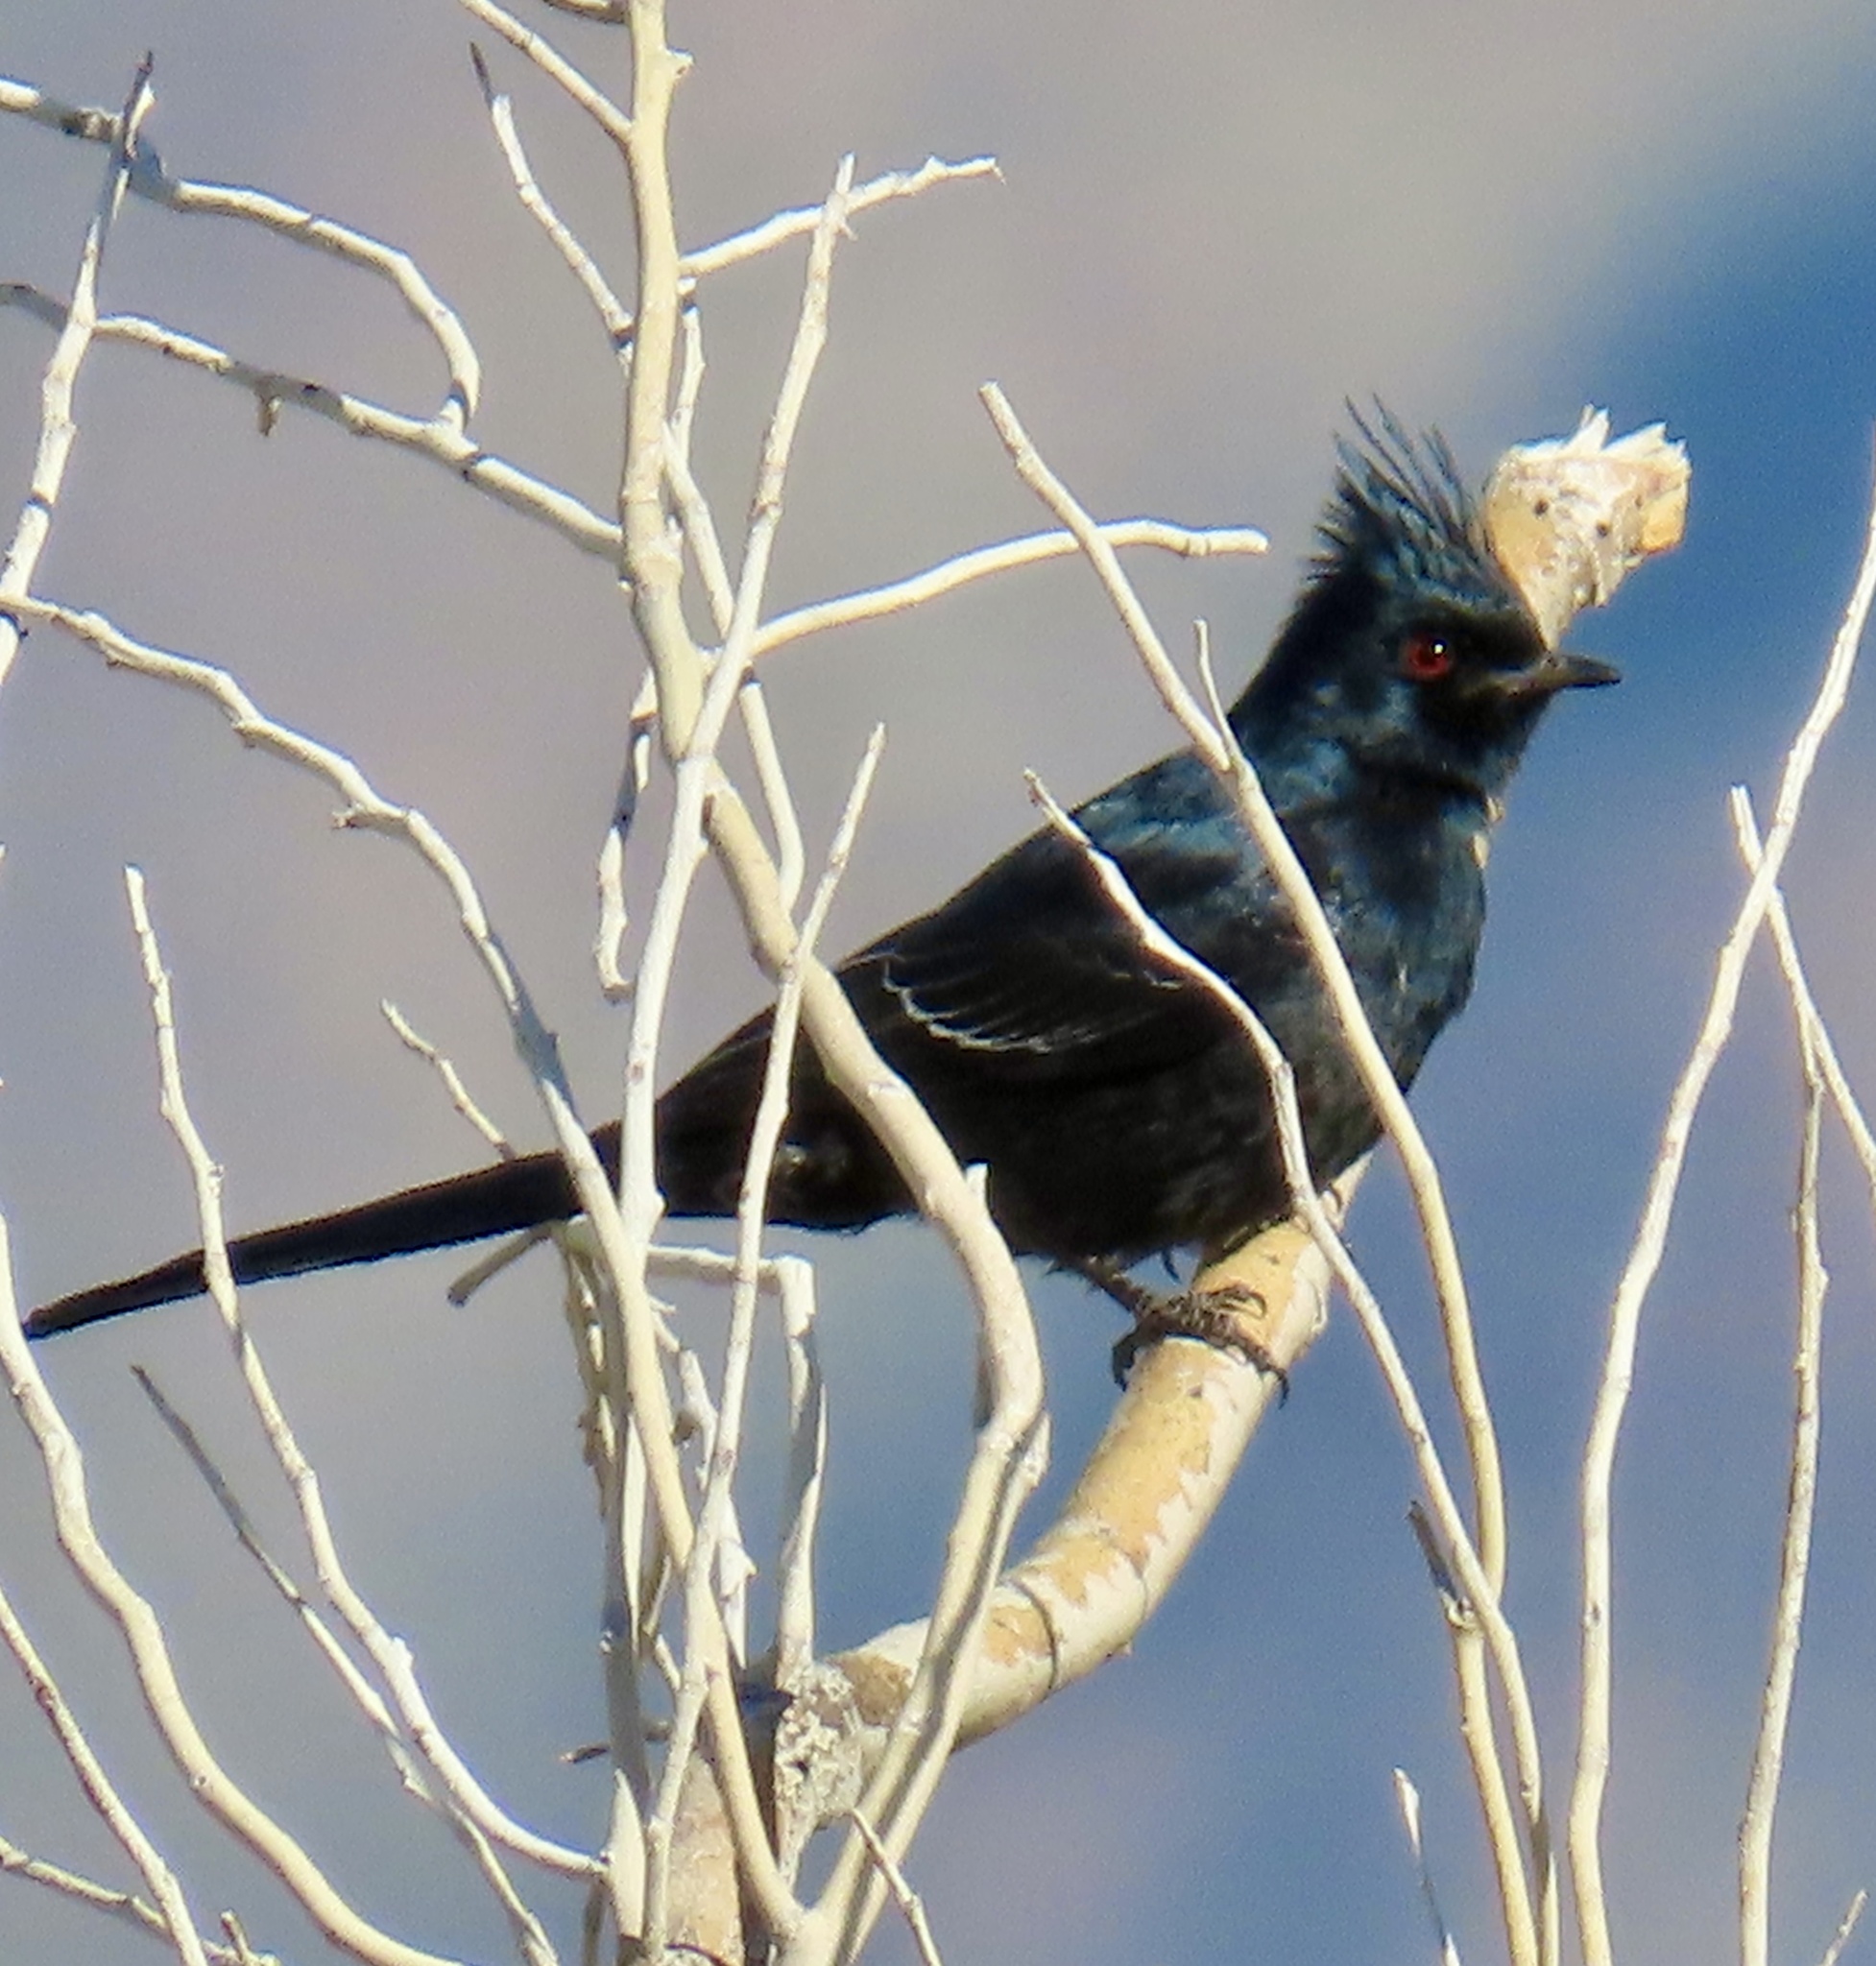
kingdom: Animalia
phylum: Chordata
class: Aves
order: Passeriformes
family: Ptilogonatidae
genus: Phainopepla
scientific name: Phainopepla nitens
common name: Phainopepla
